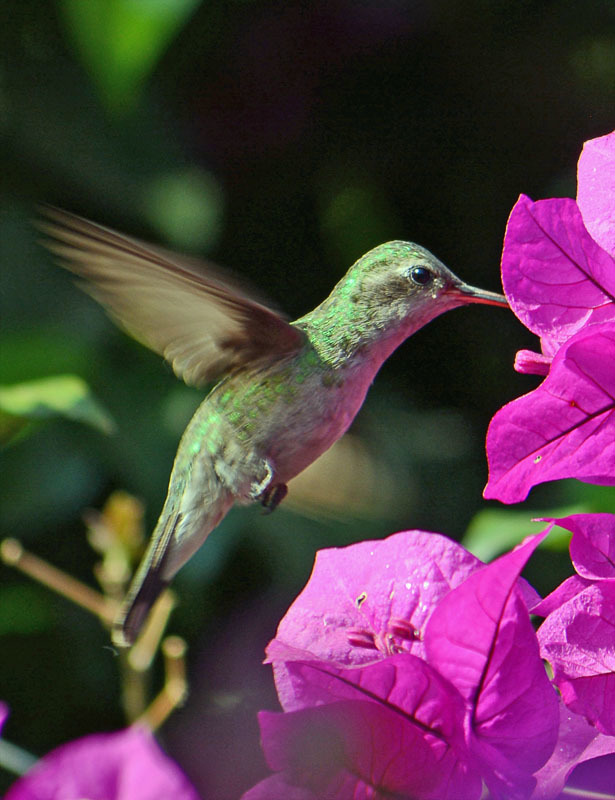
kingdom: Animalia
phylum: Chordata
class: Aves
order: Apodiformes
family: Trochilidae
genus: Cynanthus
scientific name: Cynanthus latirostris
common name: Broad-billed hummingbird
